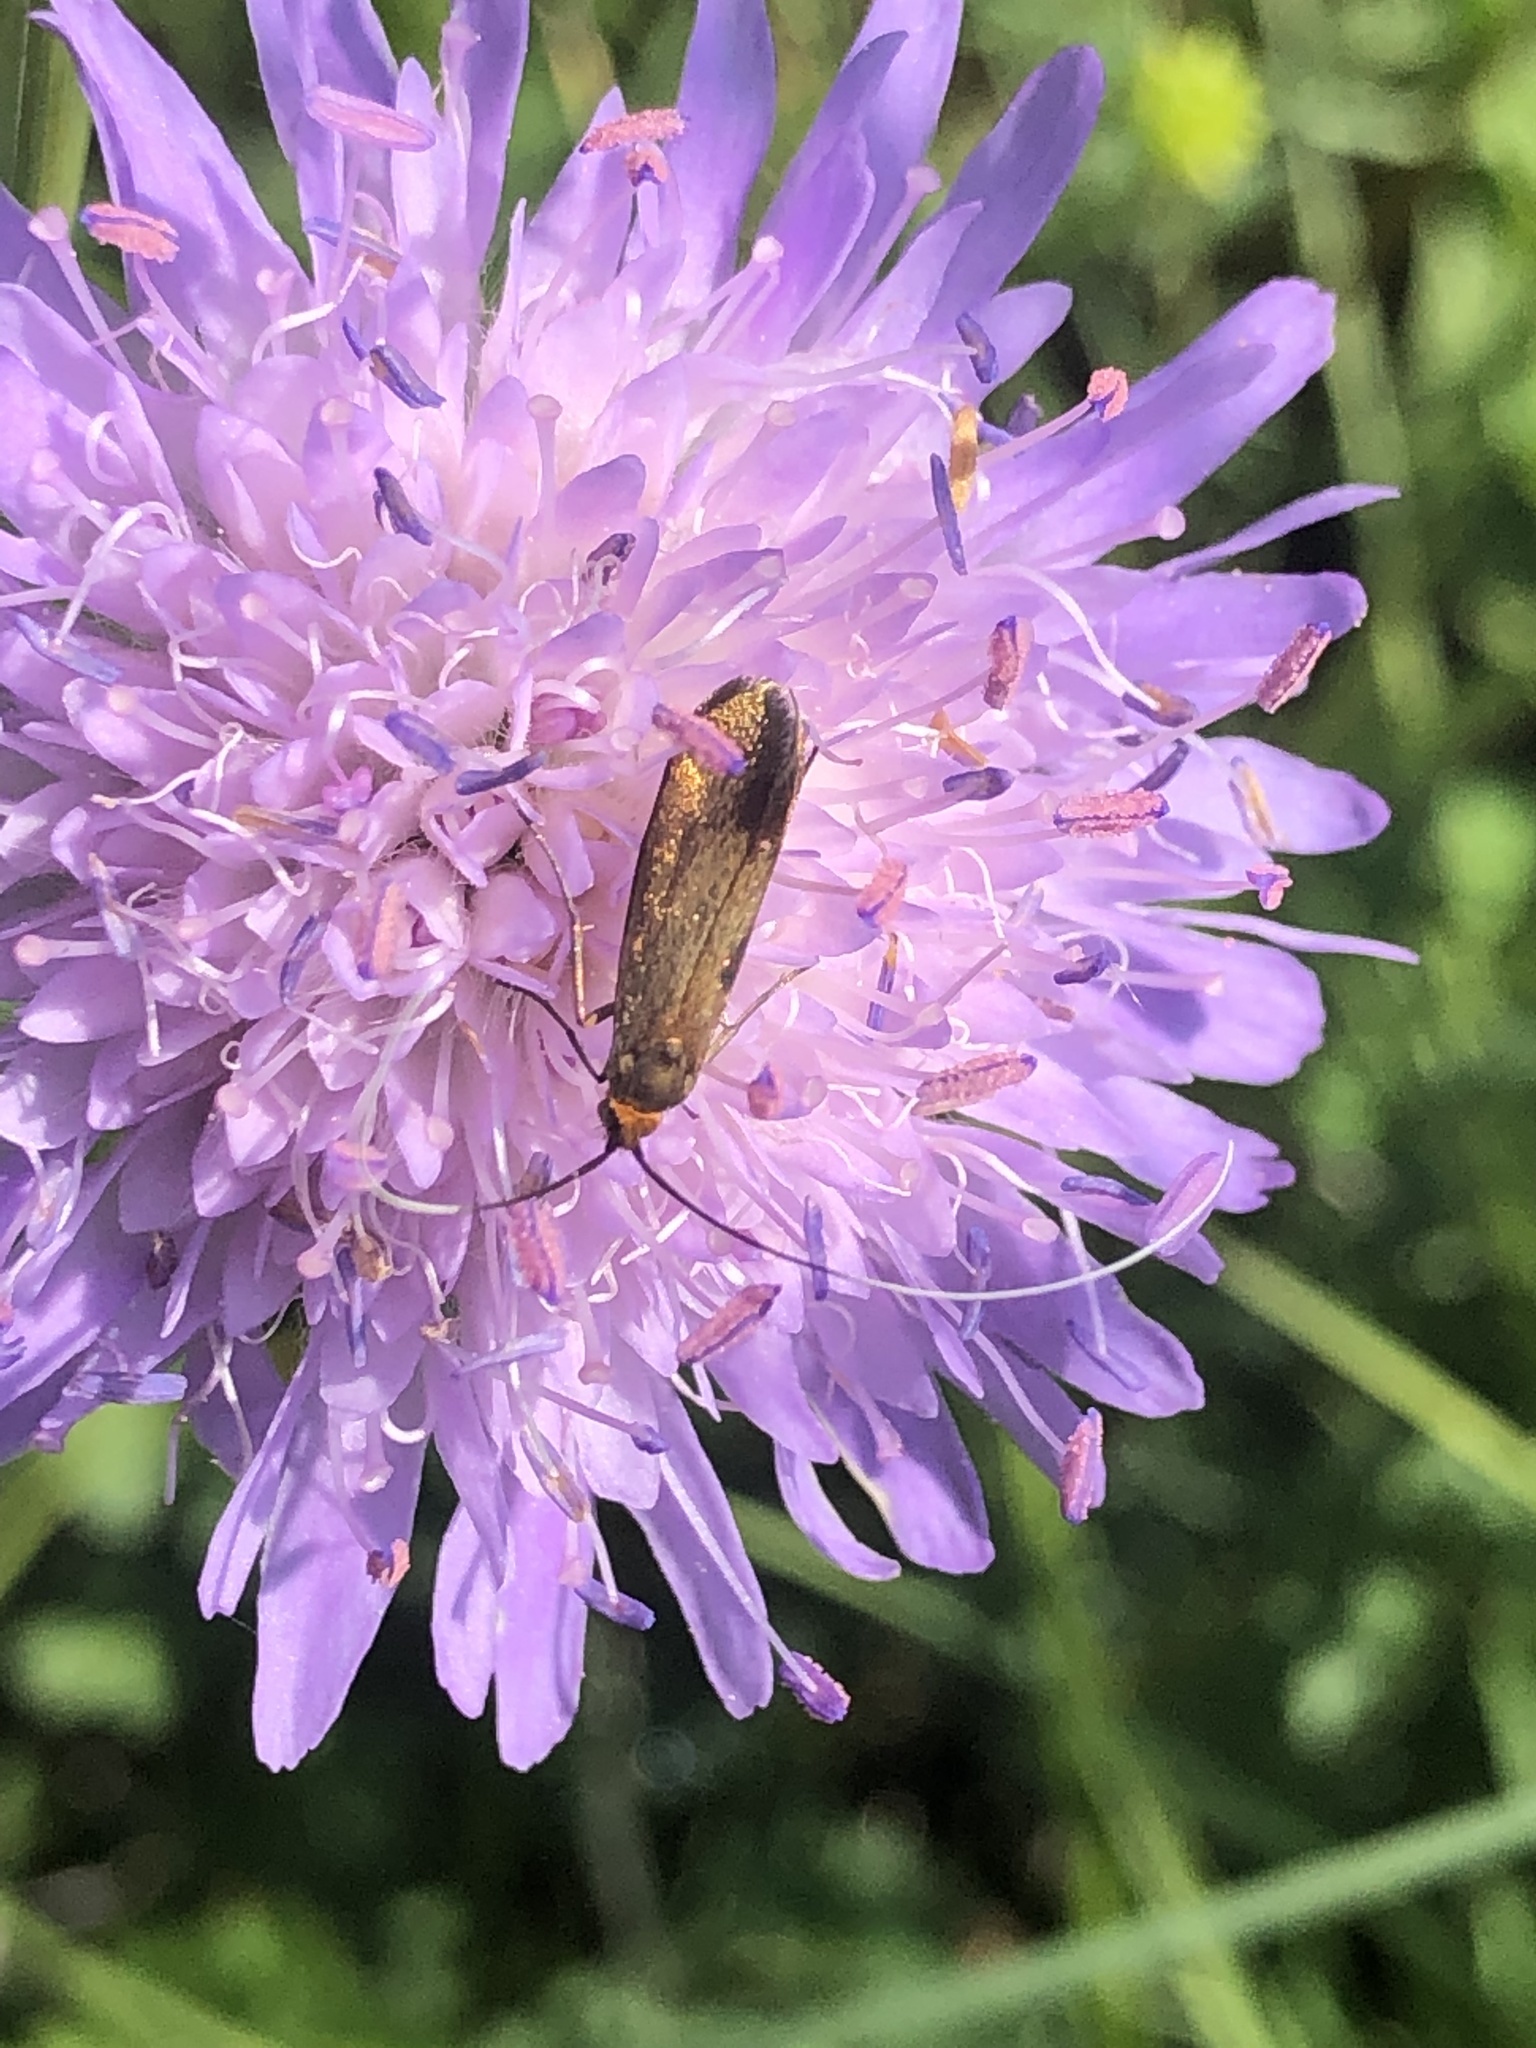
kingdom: Animalia
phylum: Arthropoda
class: Insecta
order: Lepidoptera
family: Adelidae
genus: Nemophora
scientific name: Nemophora metallica
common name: Brassy long-horn
